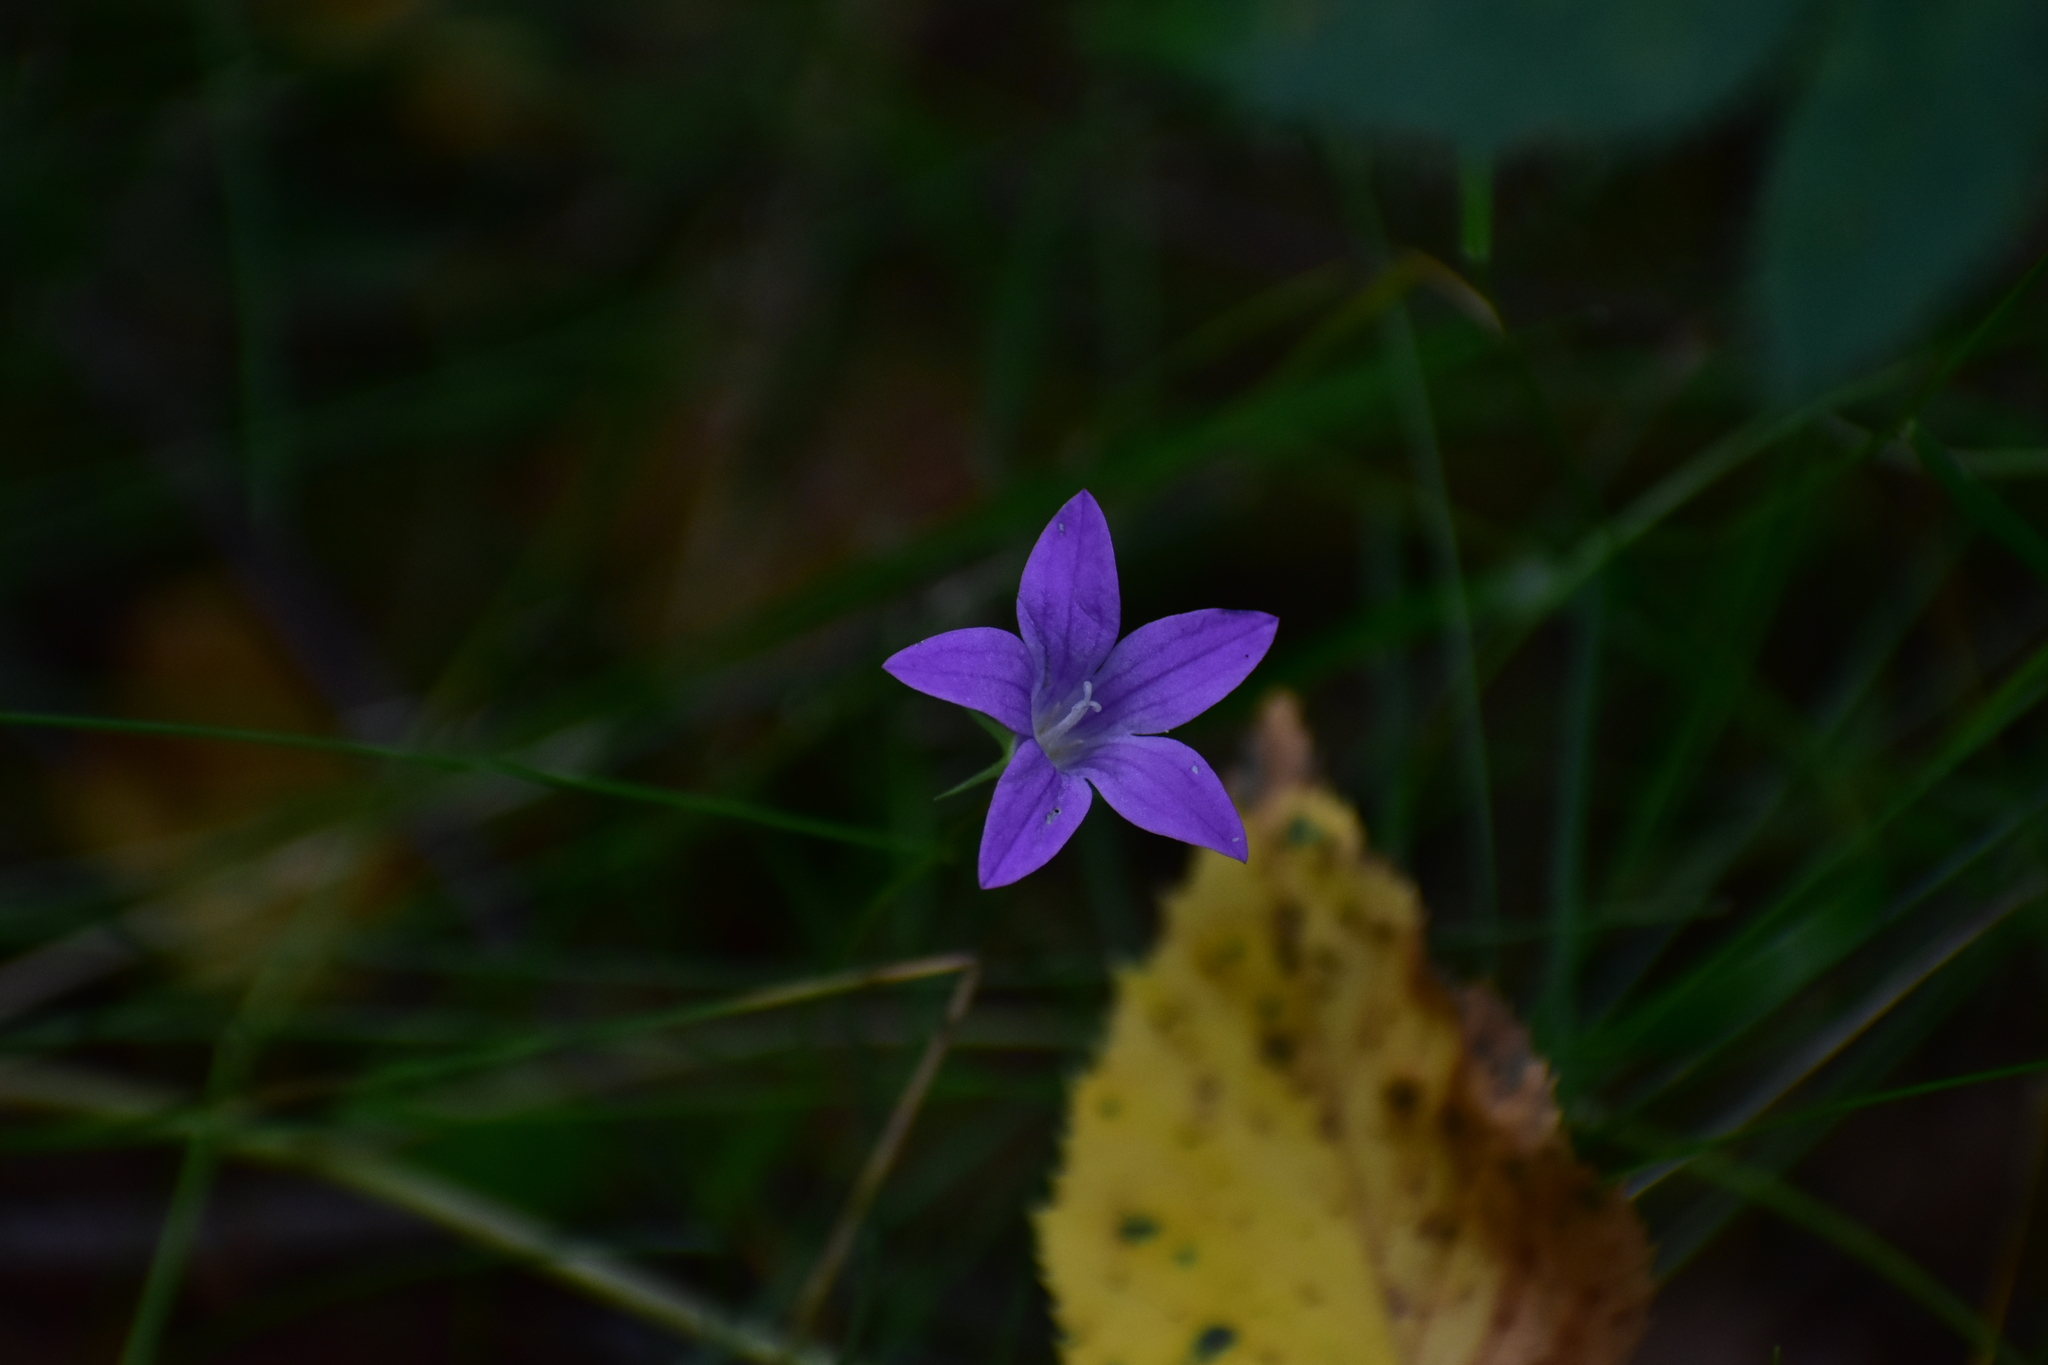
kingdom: Plantae
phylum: Tracheophyta
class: Magnoliopsida
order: Asterales
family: Campanulaceae
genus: Campanula
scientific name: Campanula patula
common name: Spreading bellflower
